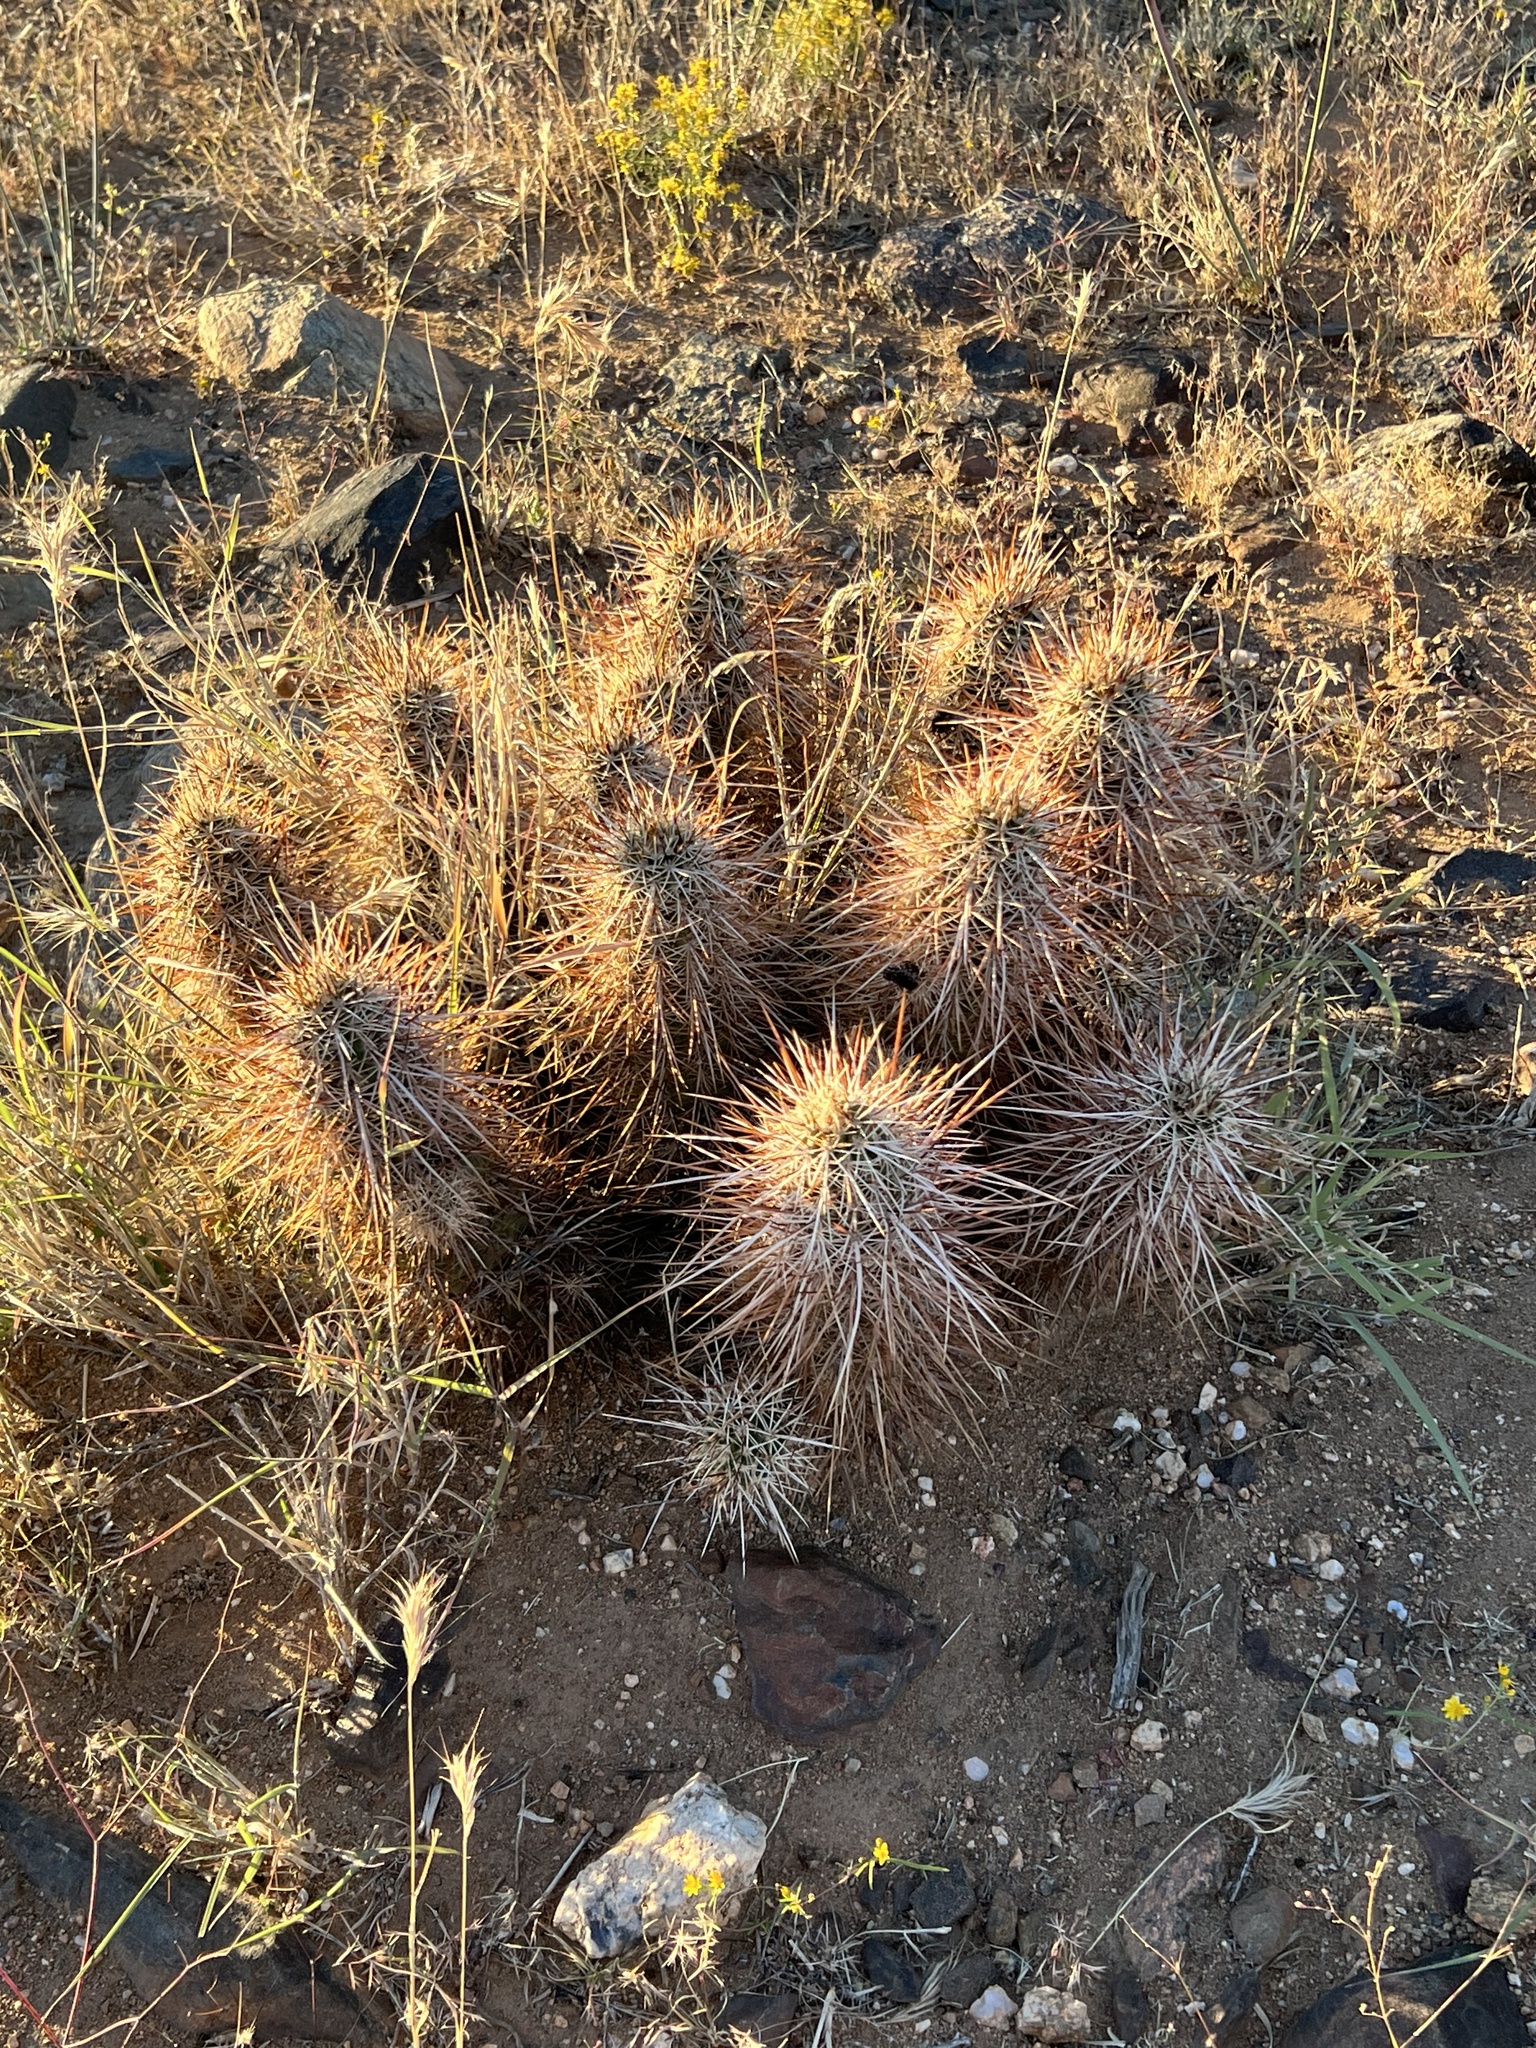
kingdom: Plantae
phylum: Tracheophyta
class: Magnoliopsida
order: Caryophyllales
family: Cactaceae
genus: Echinocereus
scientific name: Echinocereus engelmannii
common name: Engelmann's hedgehog cactus
